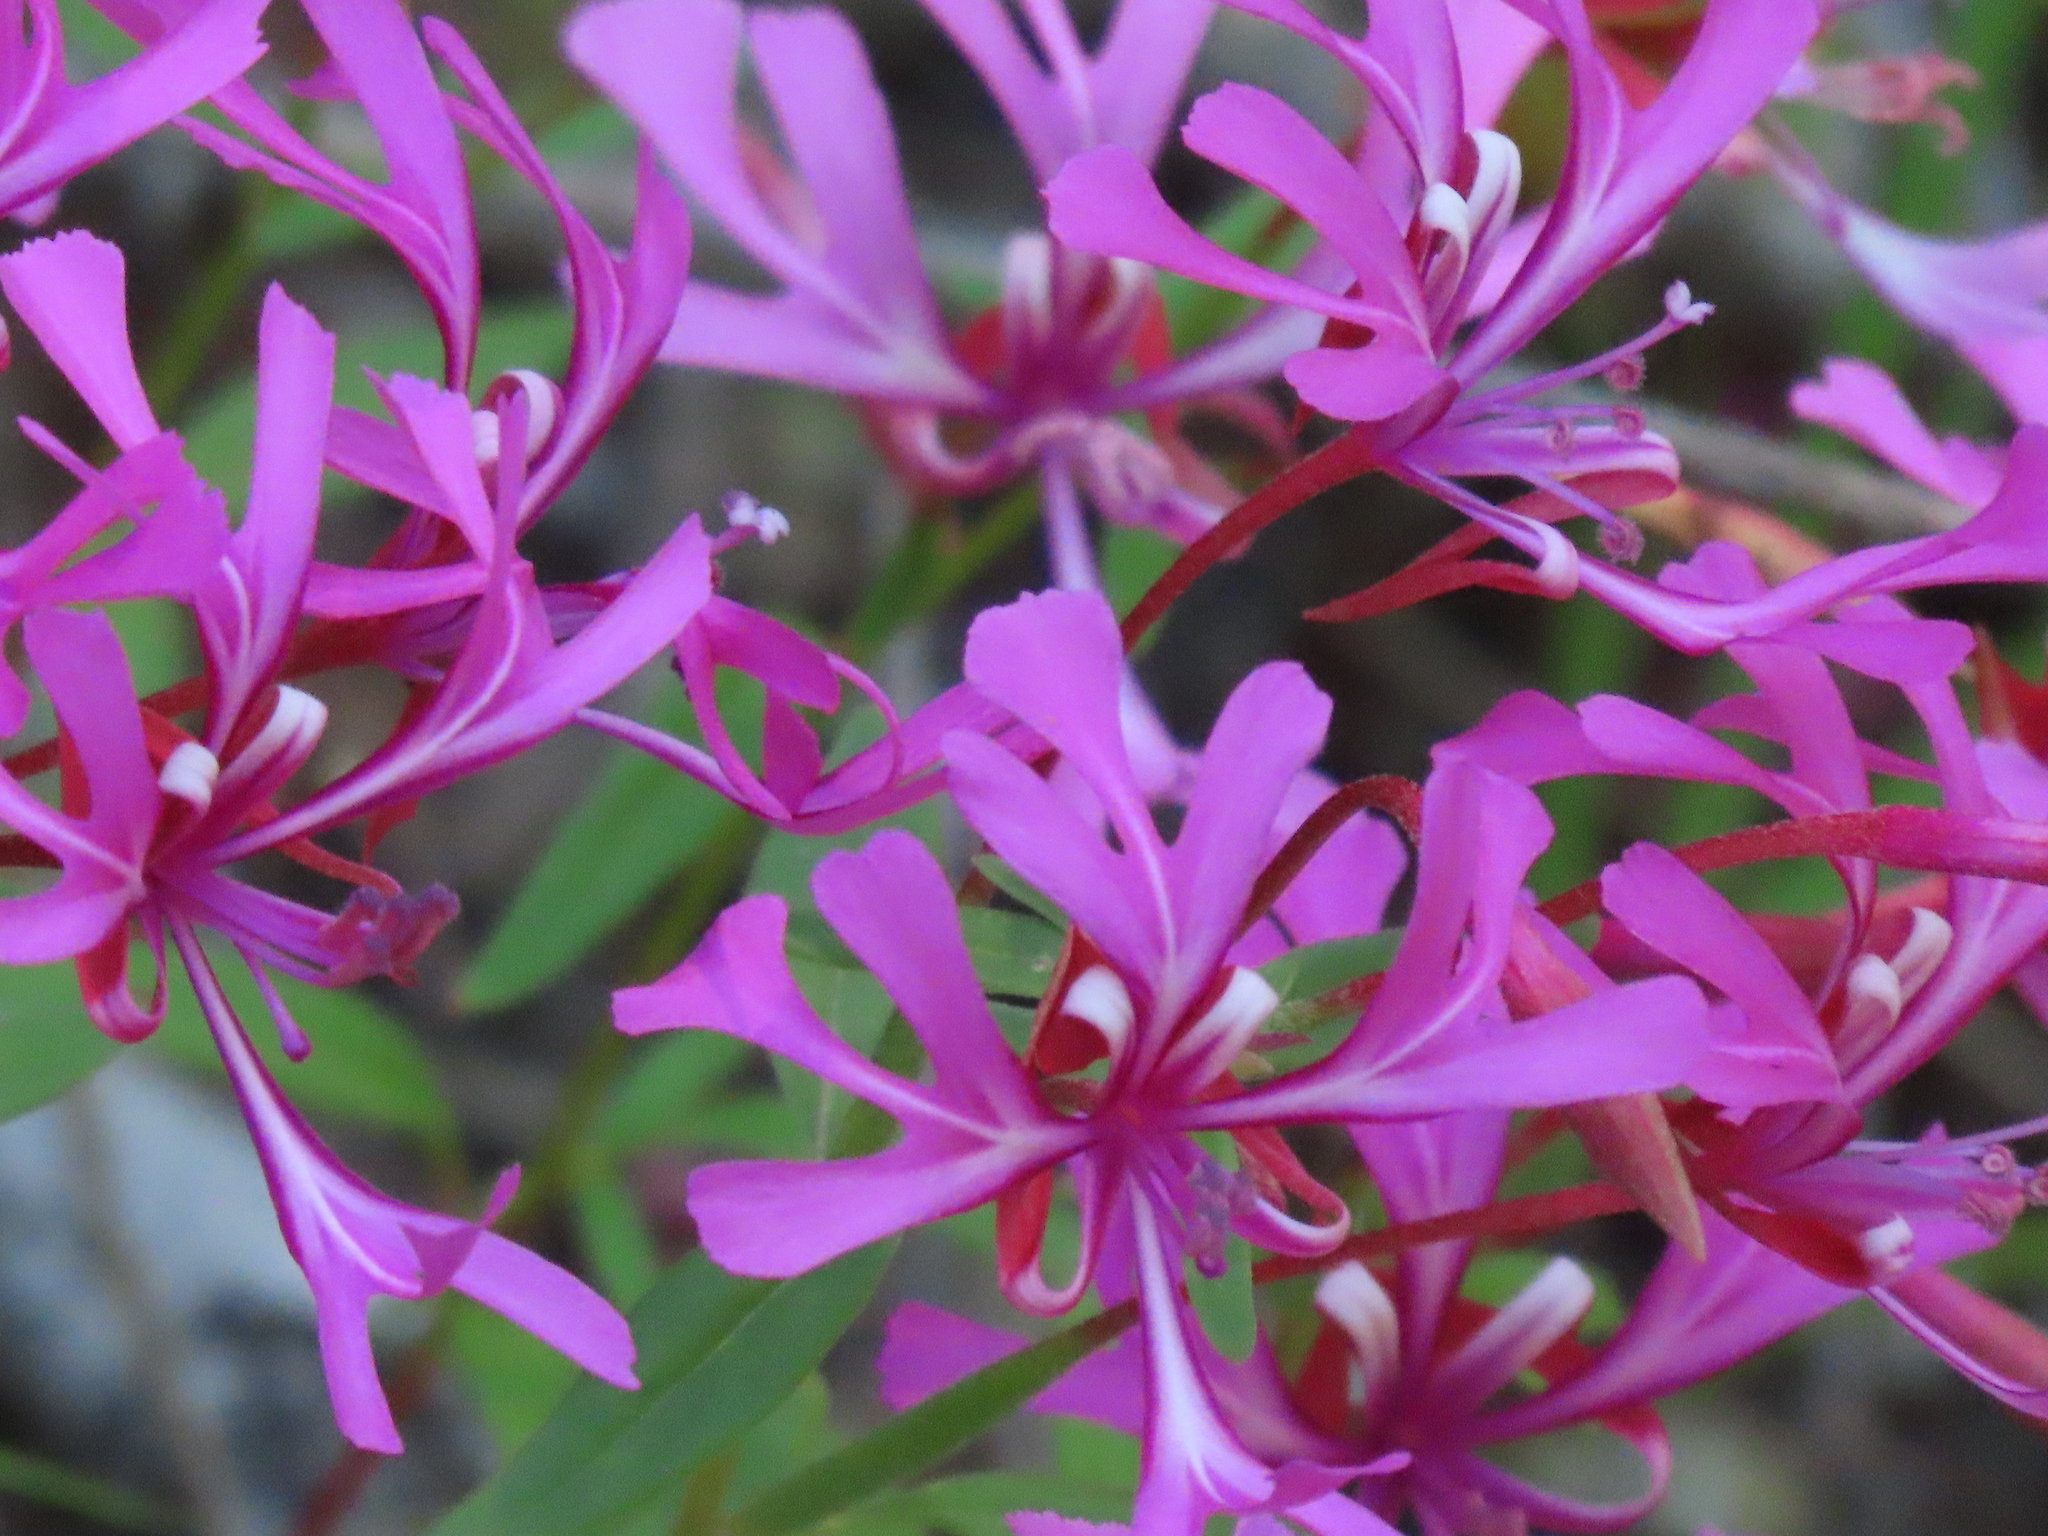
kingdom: Plantae
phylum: Tracheophyta
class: Magnoliopsida
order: Myrtales
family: Onagraceae
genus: Clarkia
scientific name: Clarkia concinna
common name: Red-ribbons
